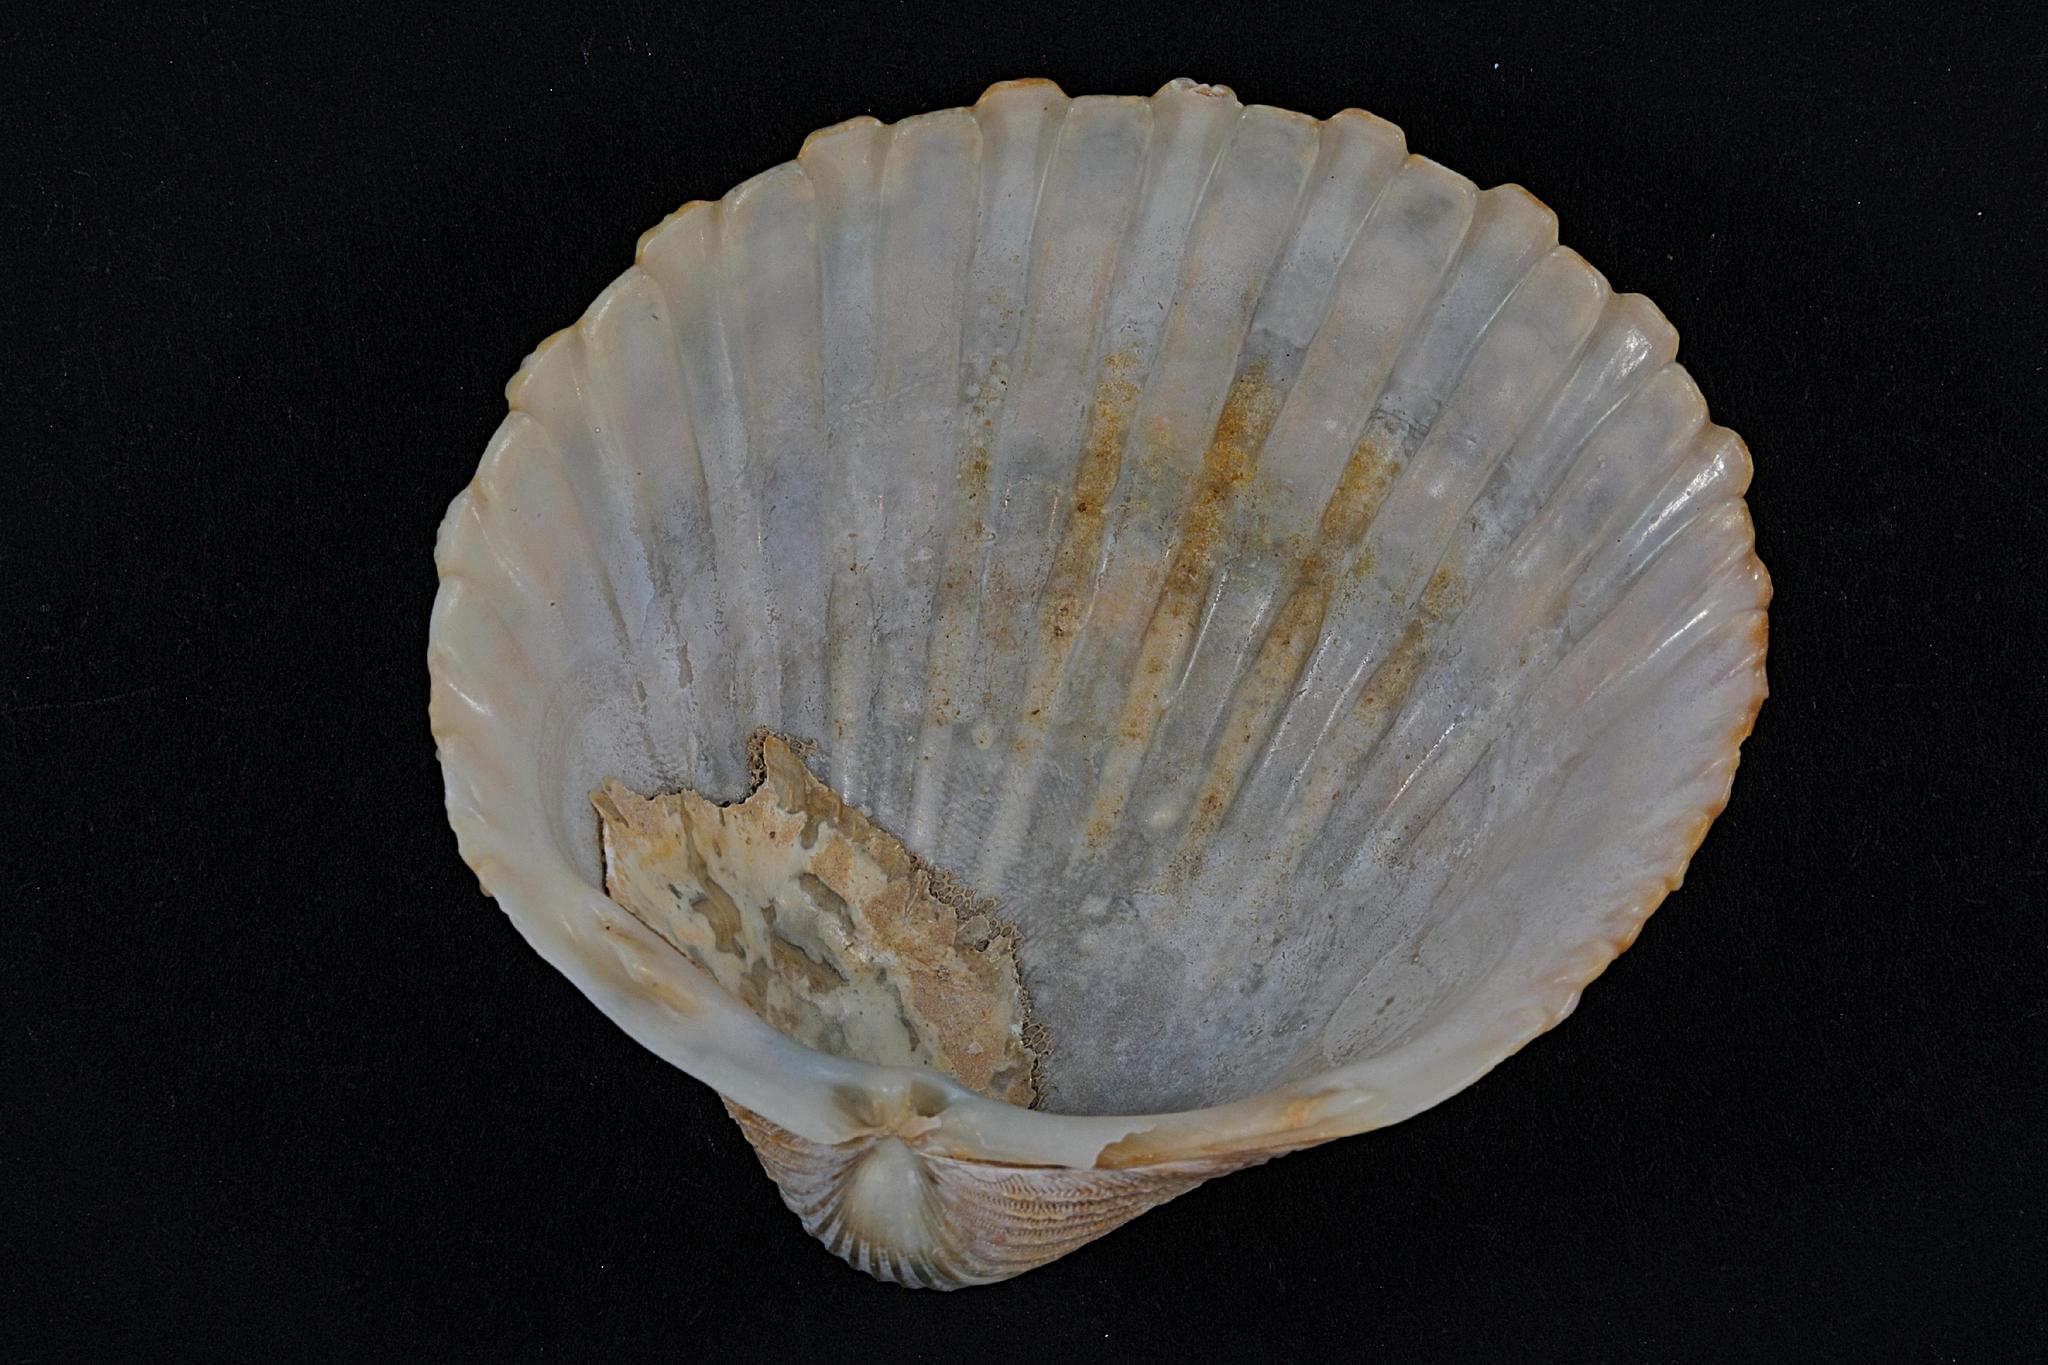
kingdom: Animalia
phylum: Mollusca
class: Bivalvia
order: Cardiida
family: Cardiidae
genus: Acanthocardia
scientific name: Acanthocardia echinata
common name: Prickly cockle
